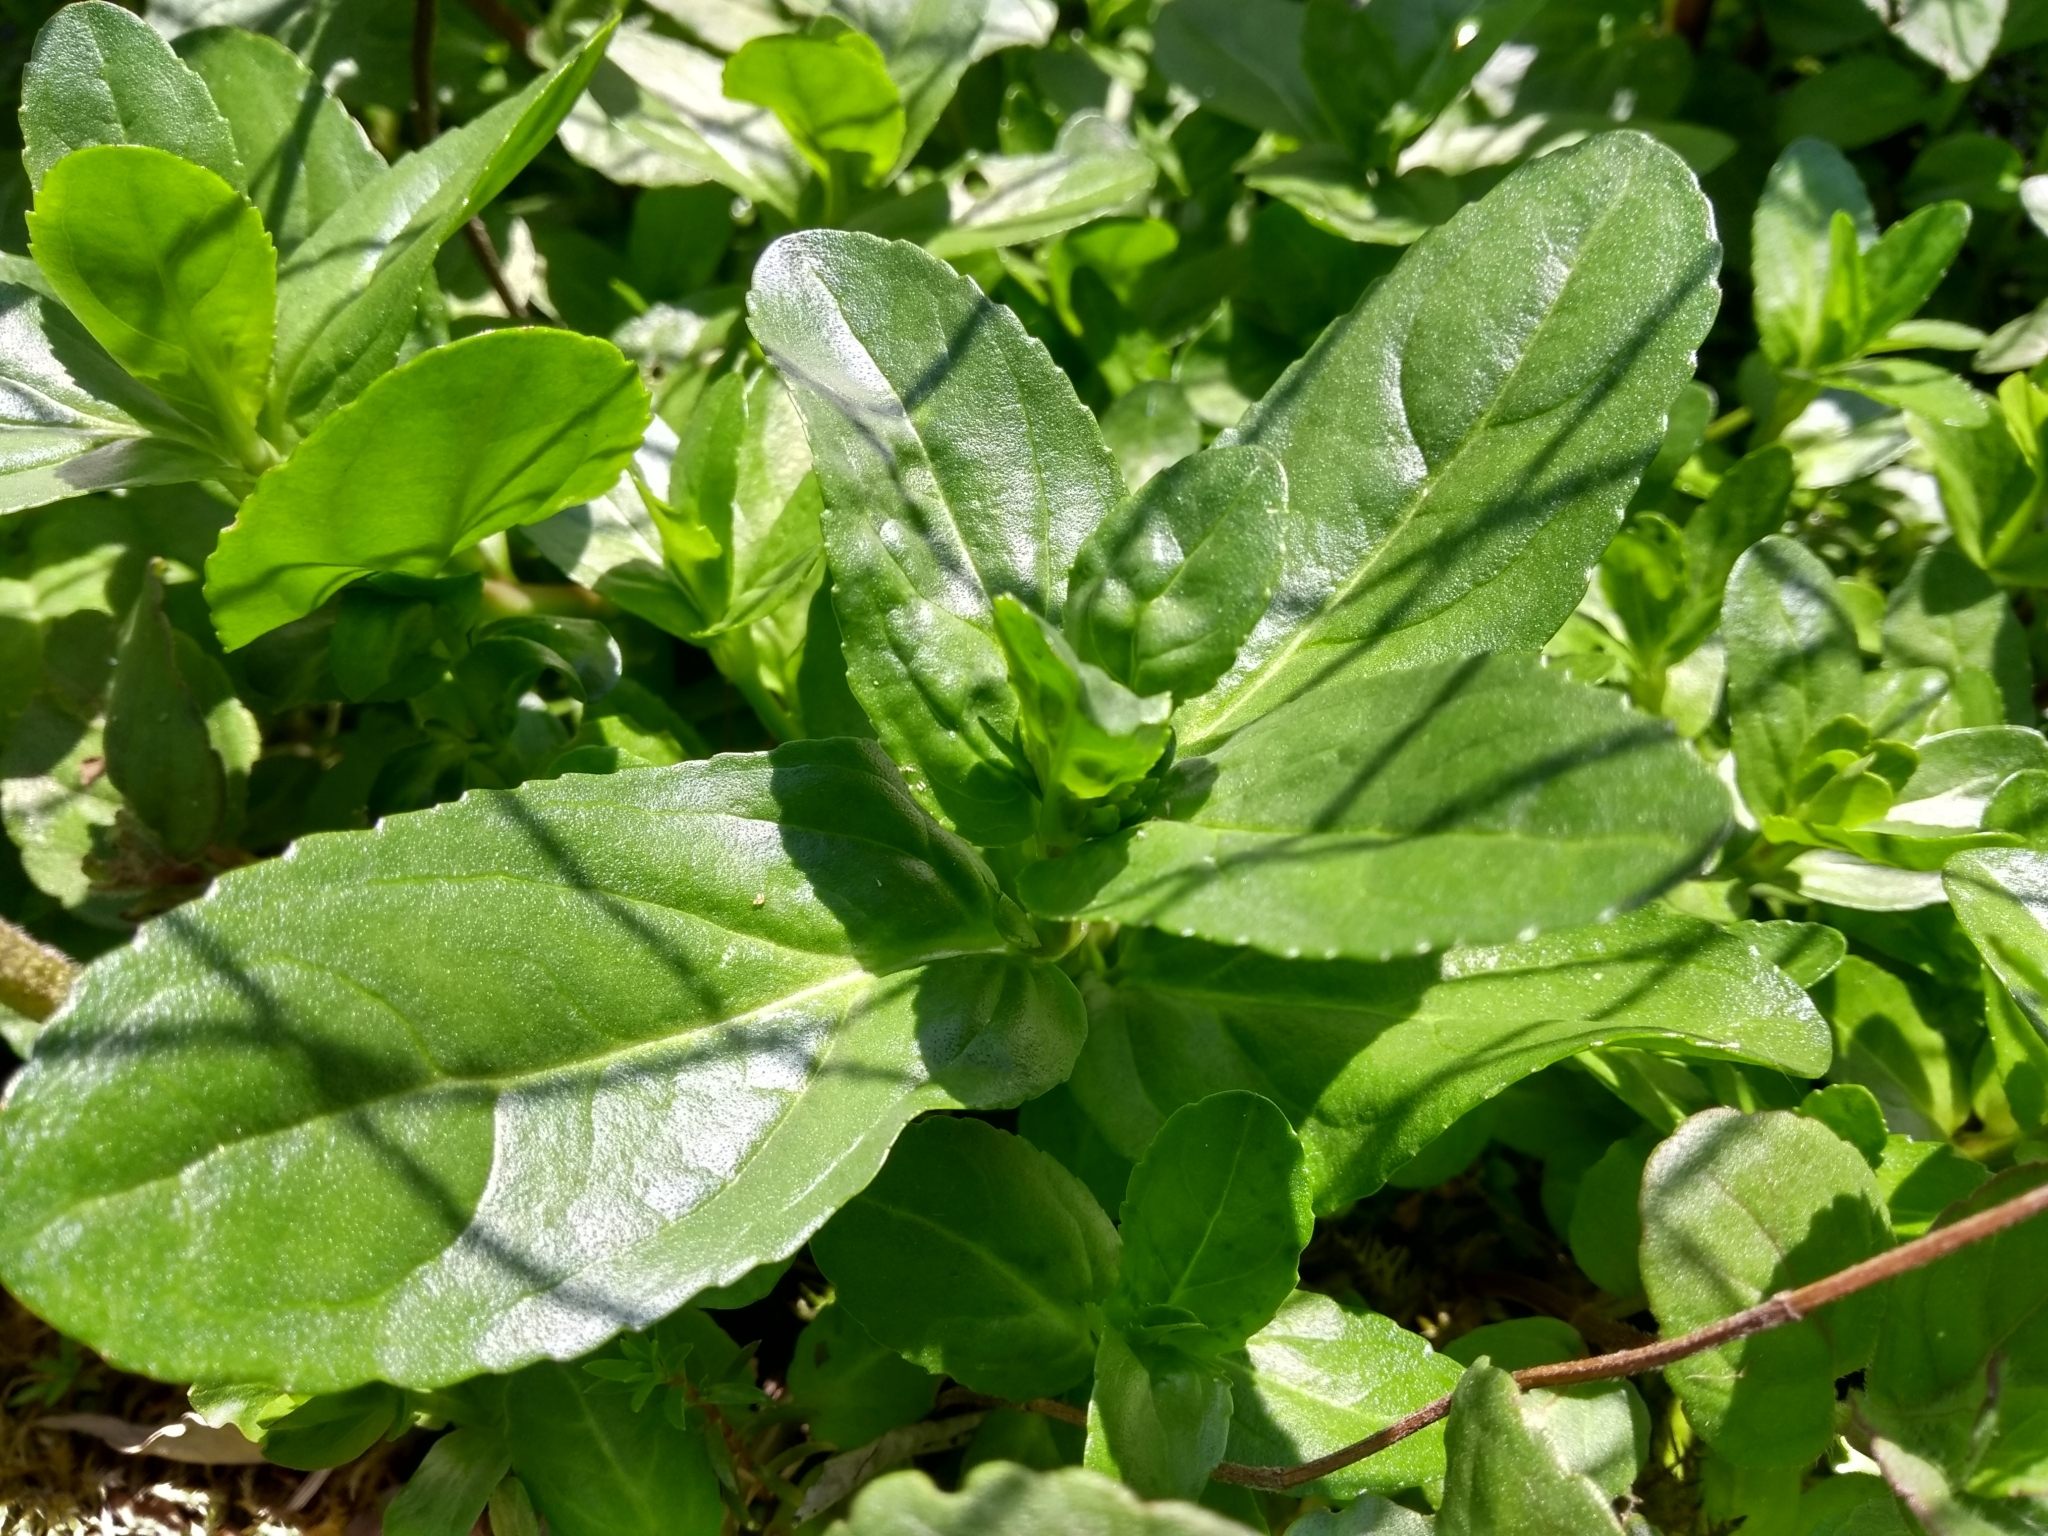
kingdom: Plantae
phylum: Tracheophyta
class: Magnoliopsida
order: Lamiales
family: Plantaginaceae
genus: Veronica
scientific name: Veronica beccabunga
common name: Brooklime
